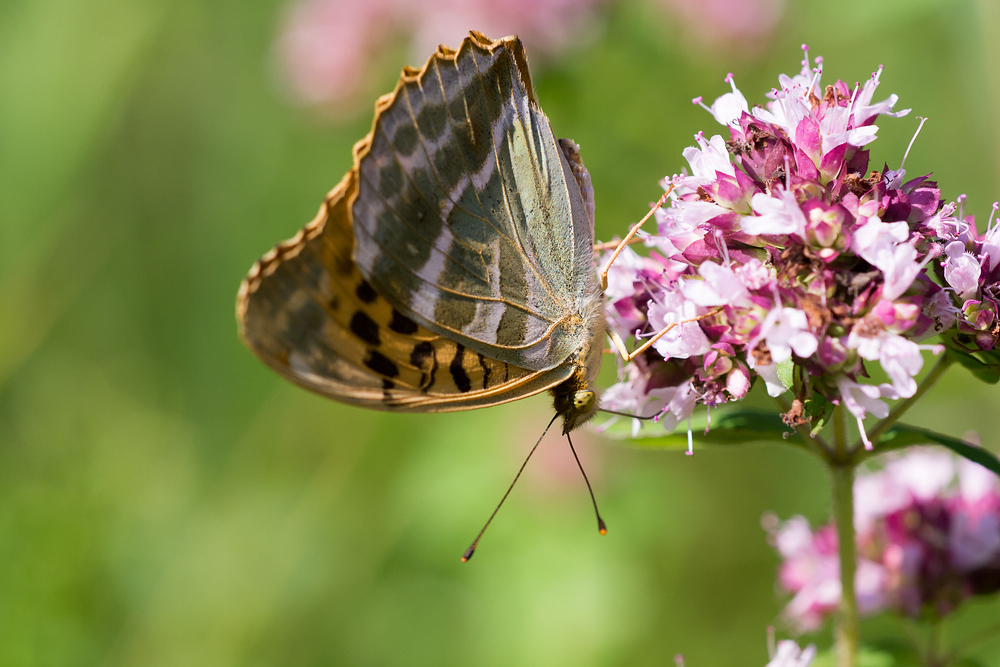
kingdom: Animalia
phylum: Arthropoda
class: Insecta
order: Lepidoptera
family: Nymphalidae
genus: Argynnis
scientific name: Argynnis paphia
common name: Silver-washed fritillary
